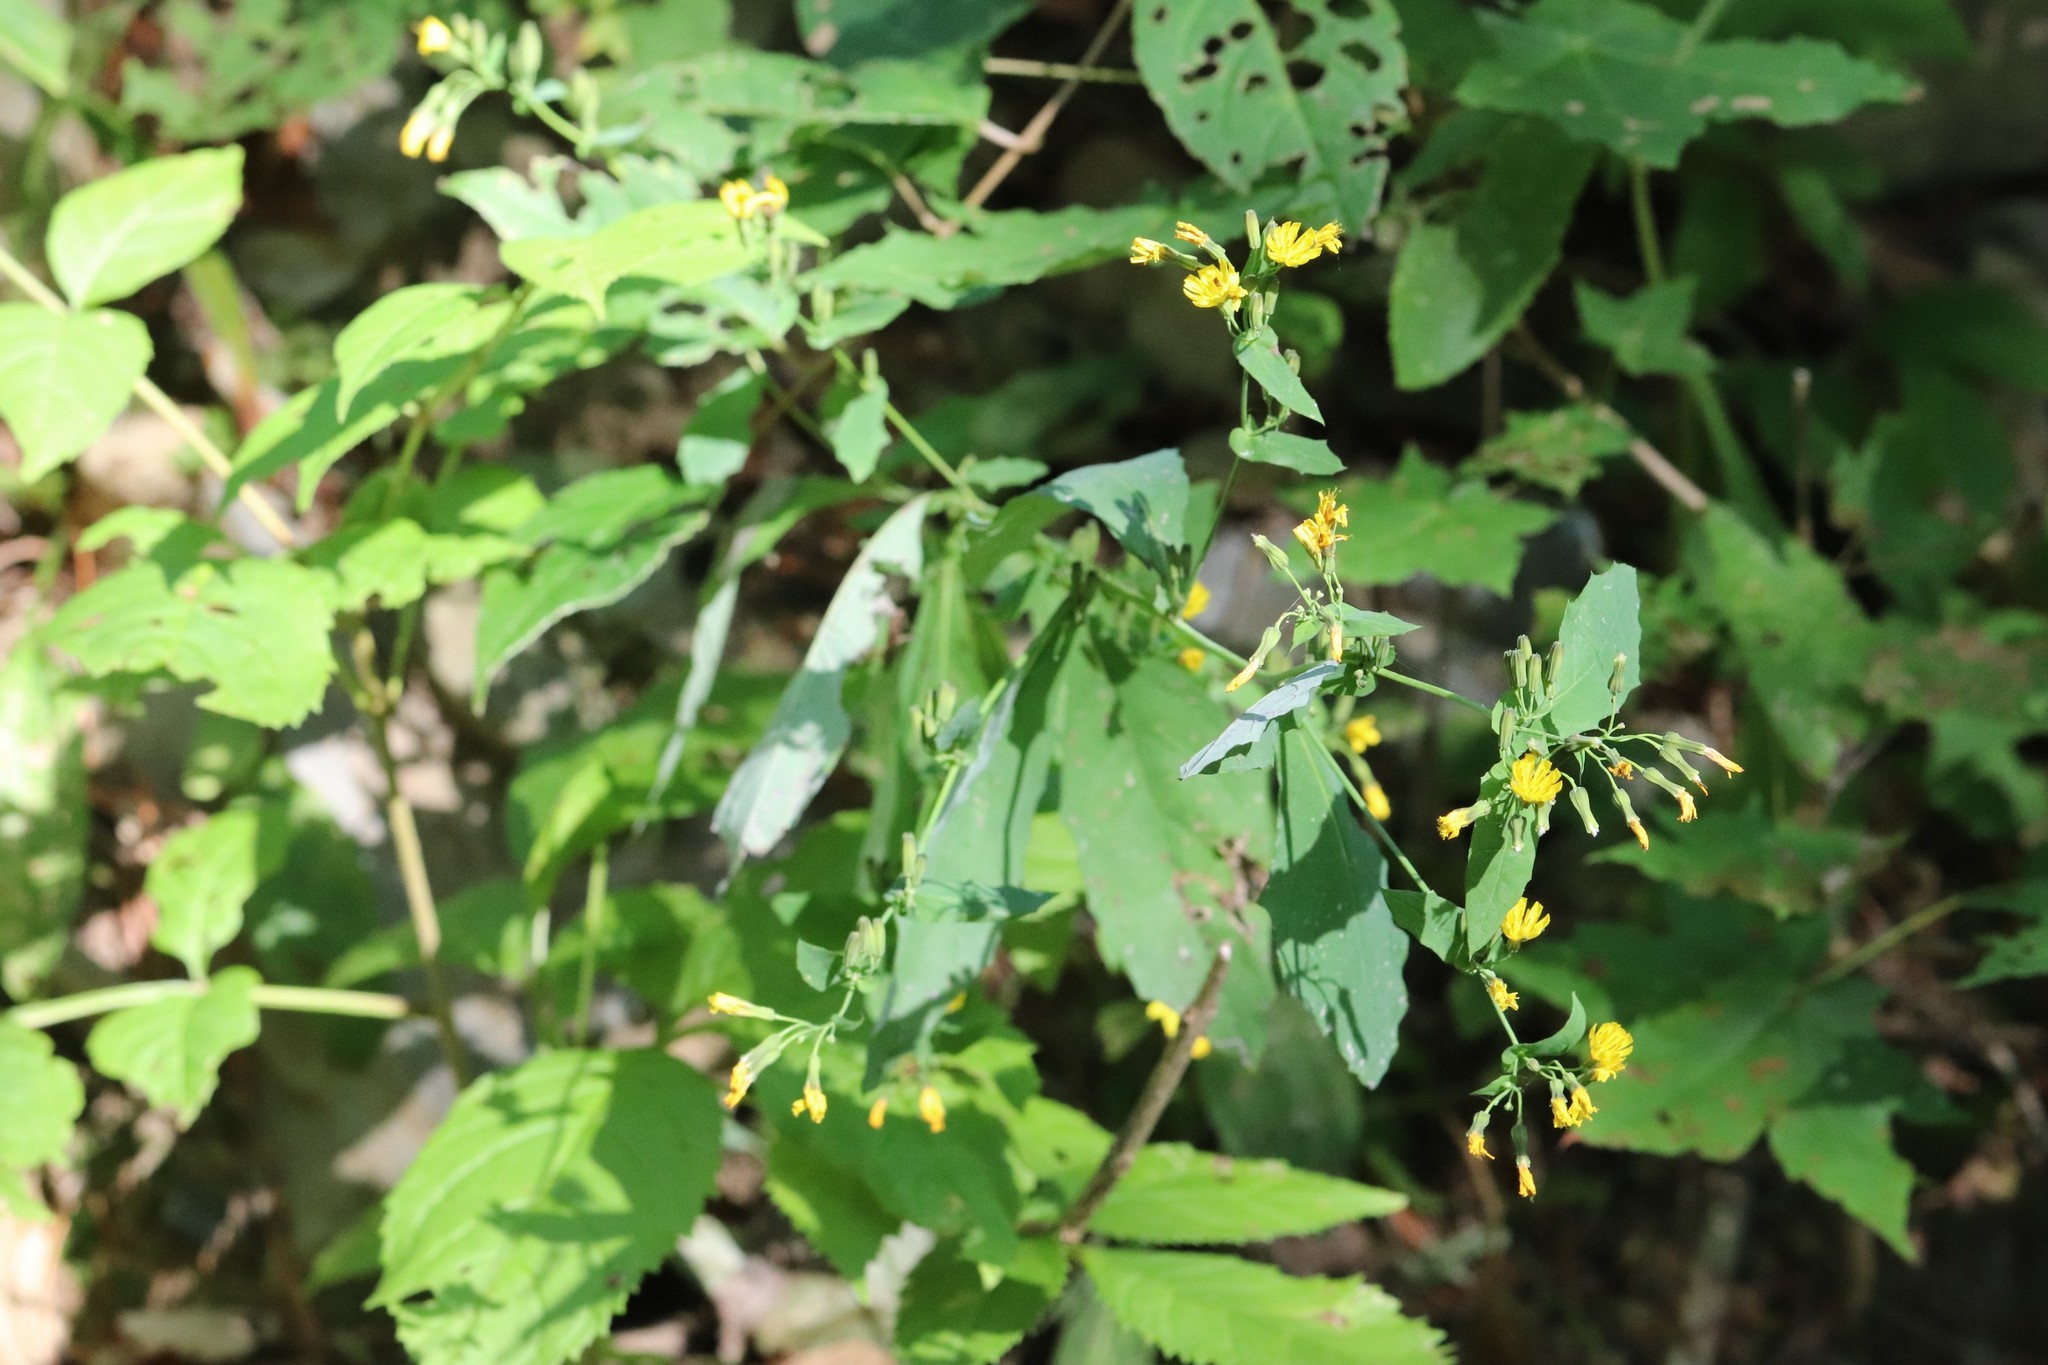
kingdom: Plantae
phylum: Tracheophyta
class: Magnoliopsida
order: Asterales
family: Asteraceae
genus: Crepidiastrum
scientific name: Crepidiastrum denticulatum
